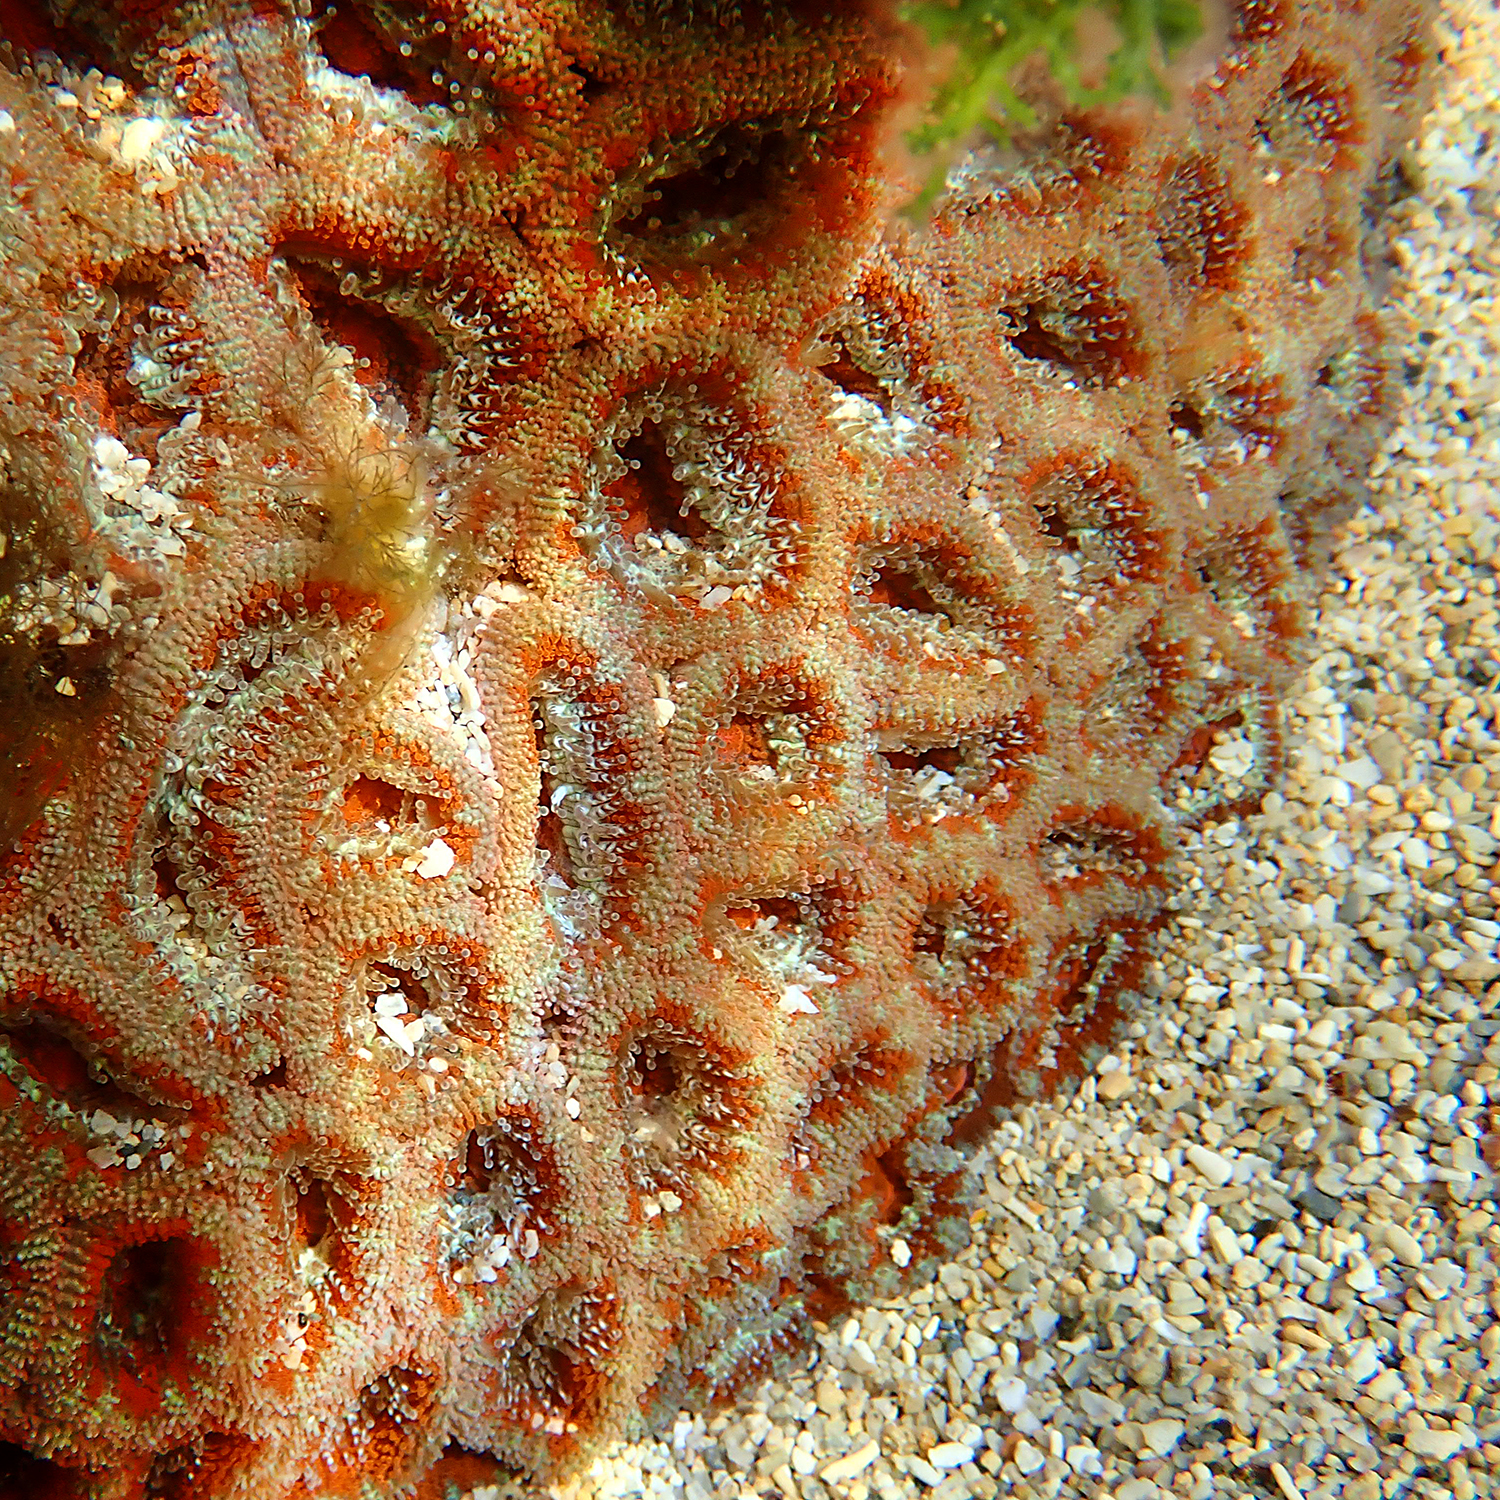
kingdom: Animalia
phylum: Cnidaria
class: Anthozoa
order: Scleractinia
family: Lobophylliidae
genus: Micromussa
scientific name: Micromussa lordhowensis
